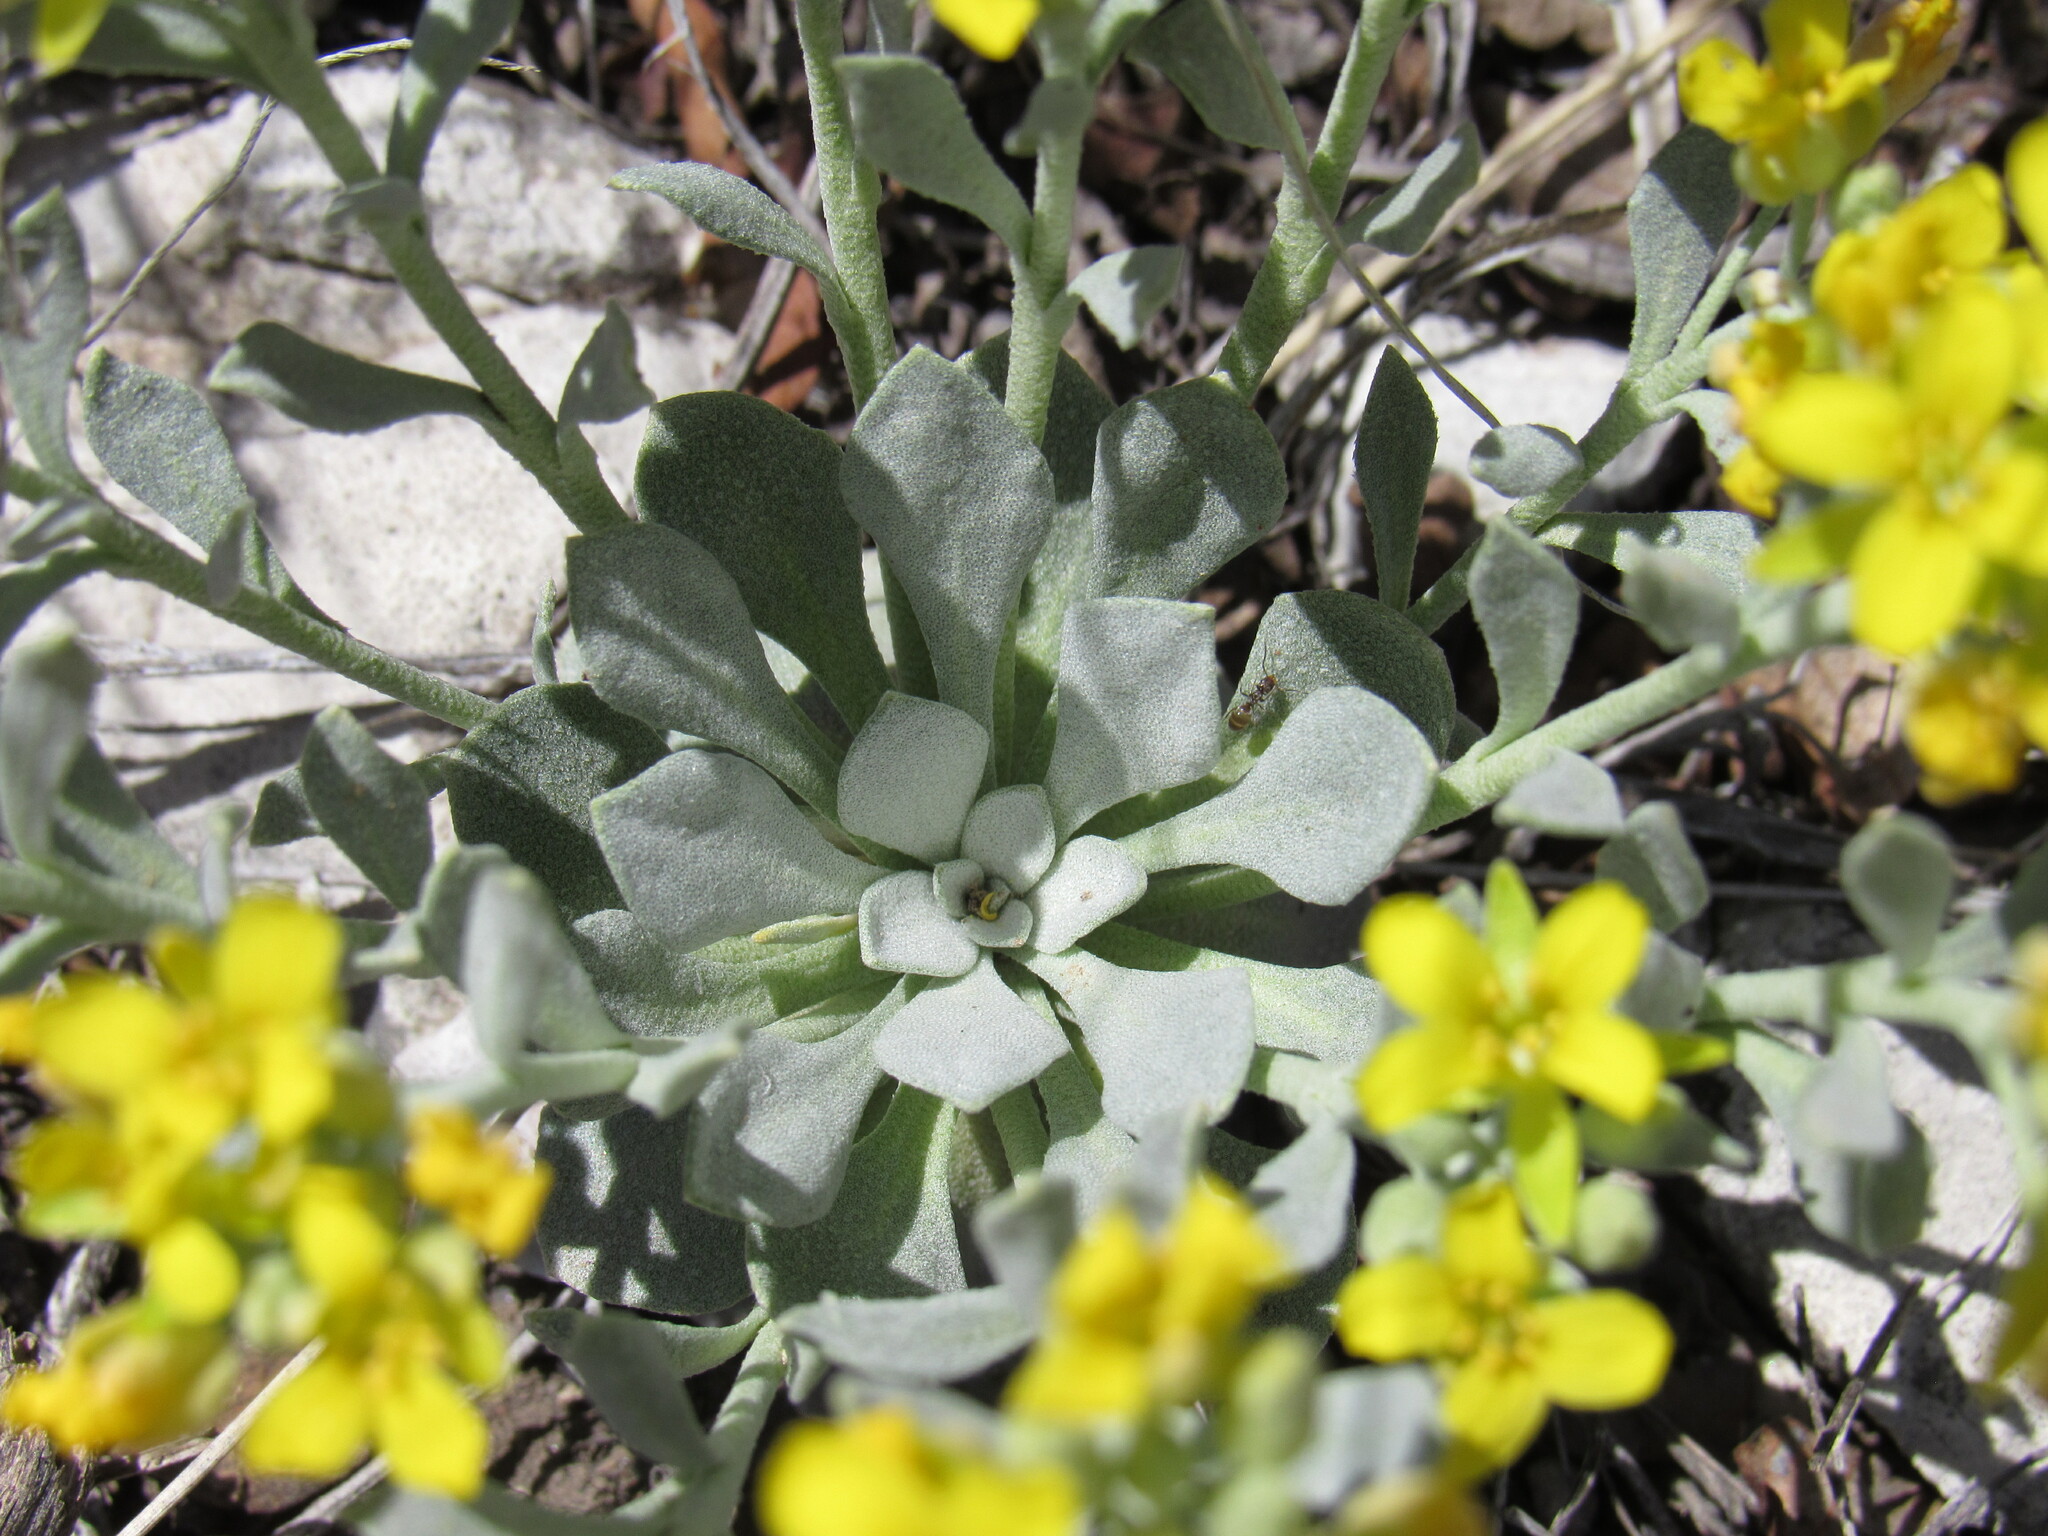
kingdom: Plantae
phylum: Tracheophyta
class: Magnoliopsida
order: Brassicales
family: Brassicaceae
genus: Physaria
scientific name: Physaria bellii
